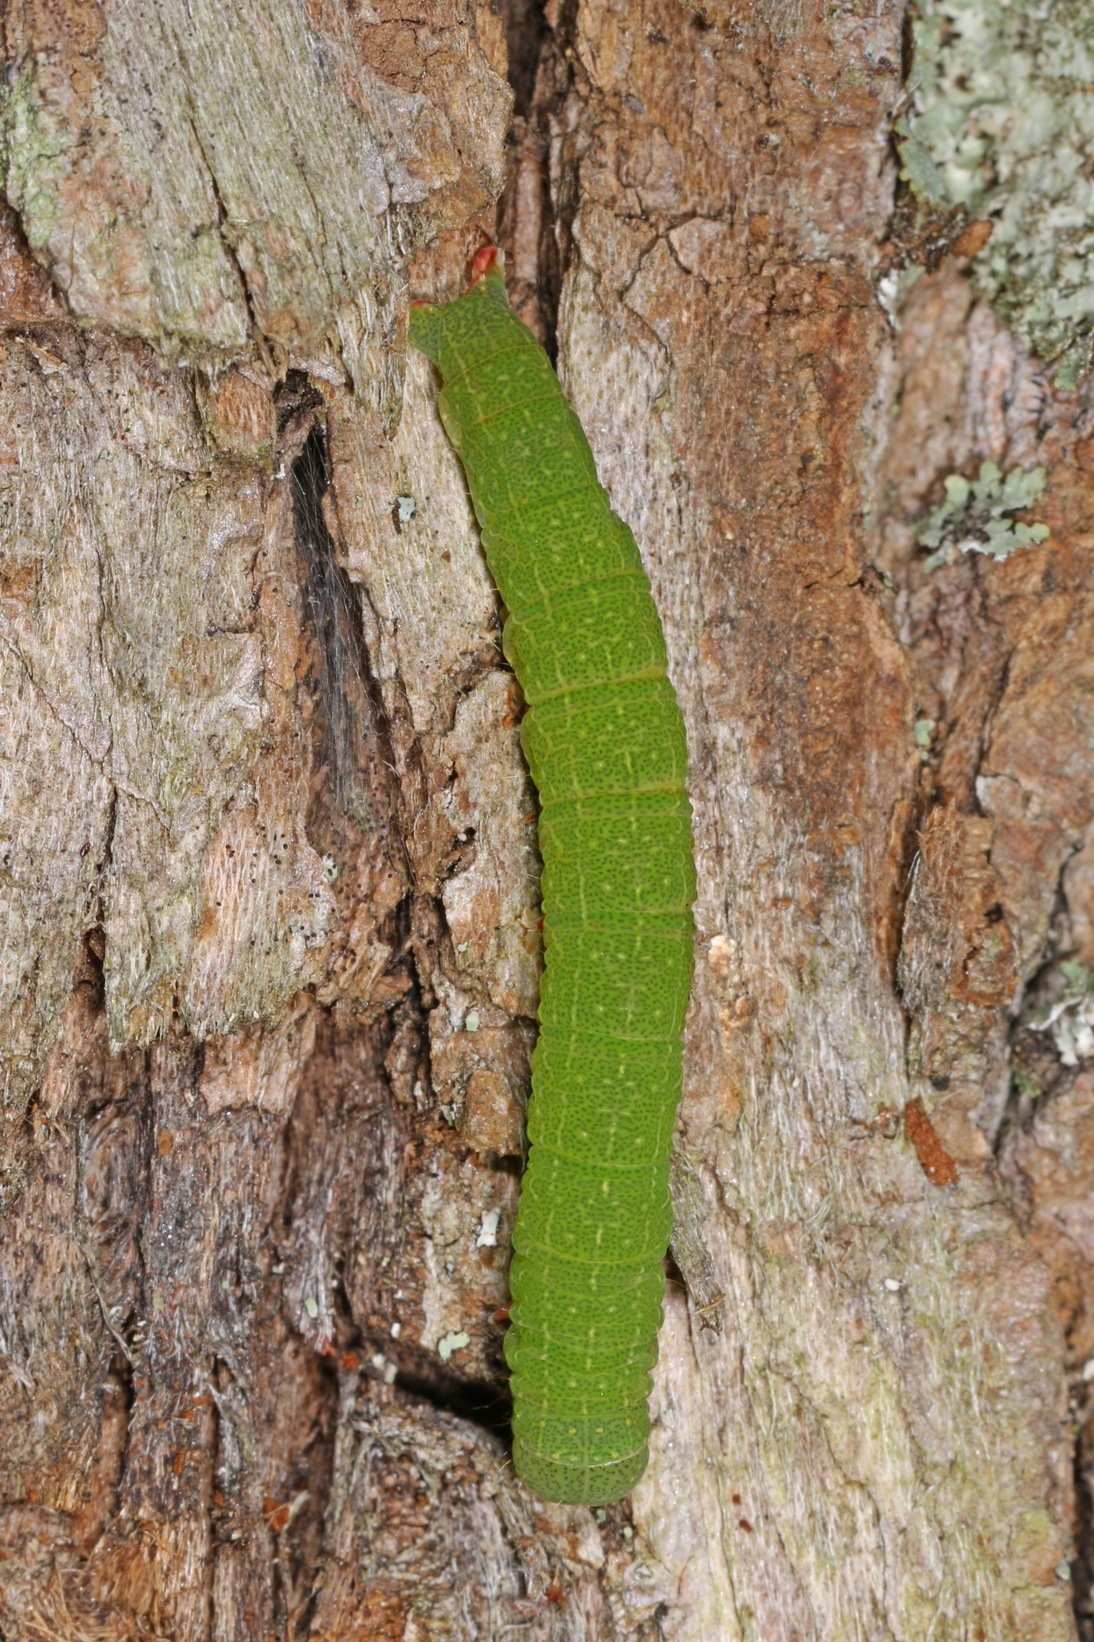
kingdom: Animalia
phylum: Arthropoda
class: Insecta
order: Lepidoptera
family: Erebidae
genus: Panopoda
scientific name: Panopoda rufimargo
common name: Red-lined panopoda moth
